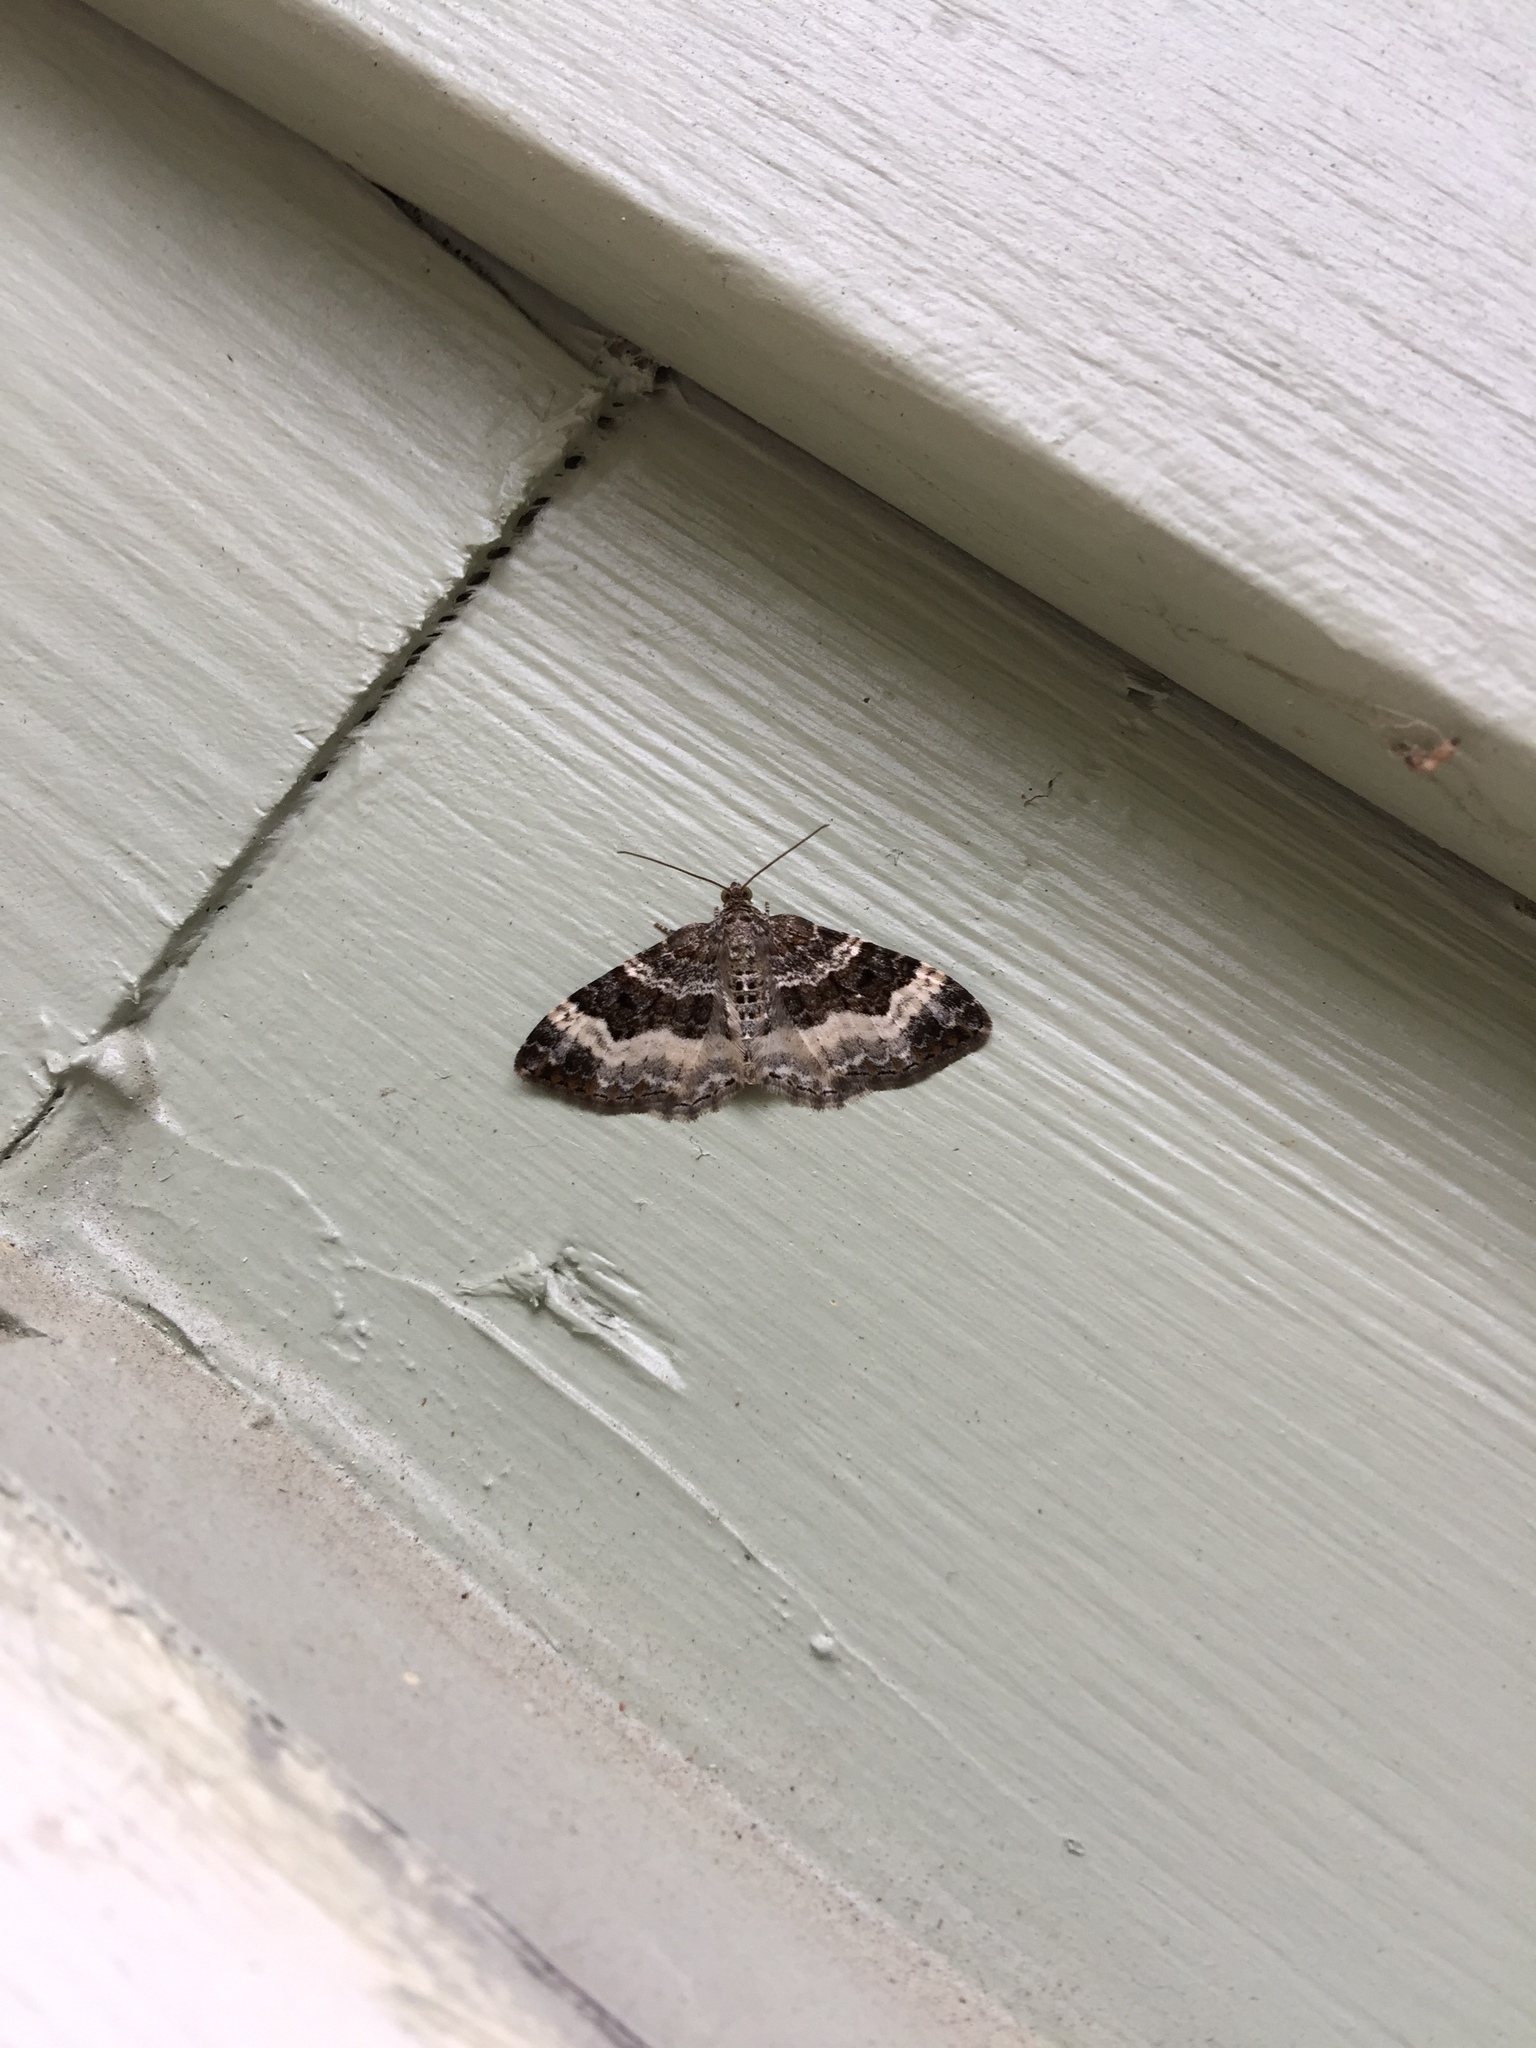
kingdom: Animalia
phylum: Arthropoda
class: Insecta
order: Lepidoptera
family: Geometridae
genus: Epirrhoe
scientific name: Epirrhoe alternata
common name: Common carpet
